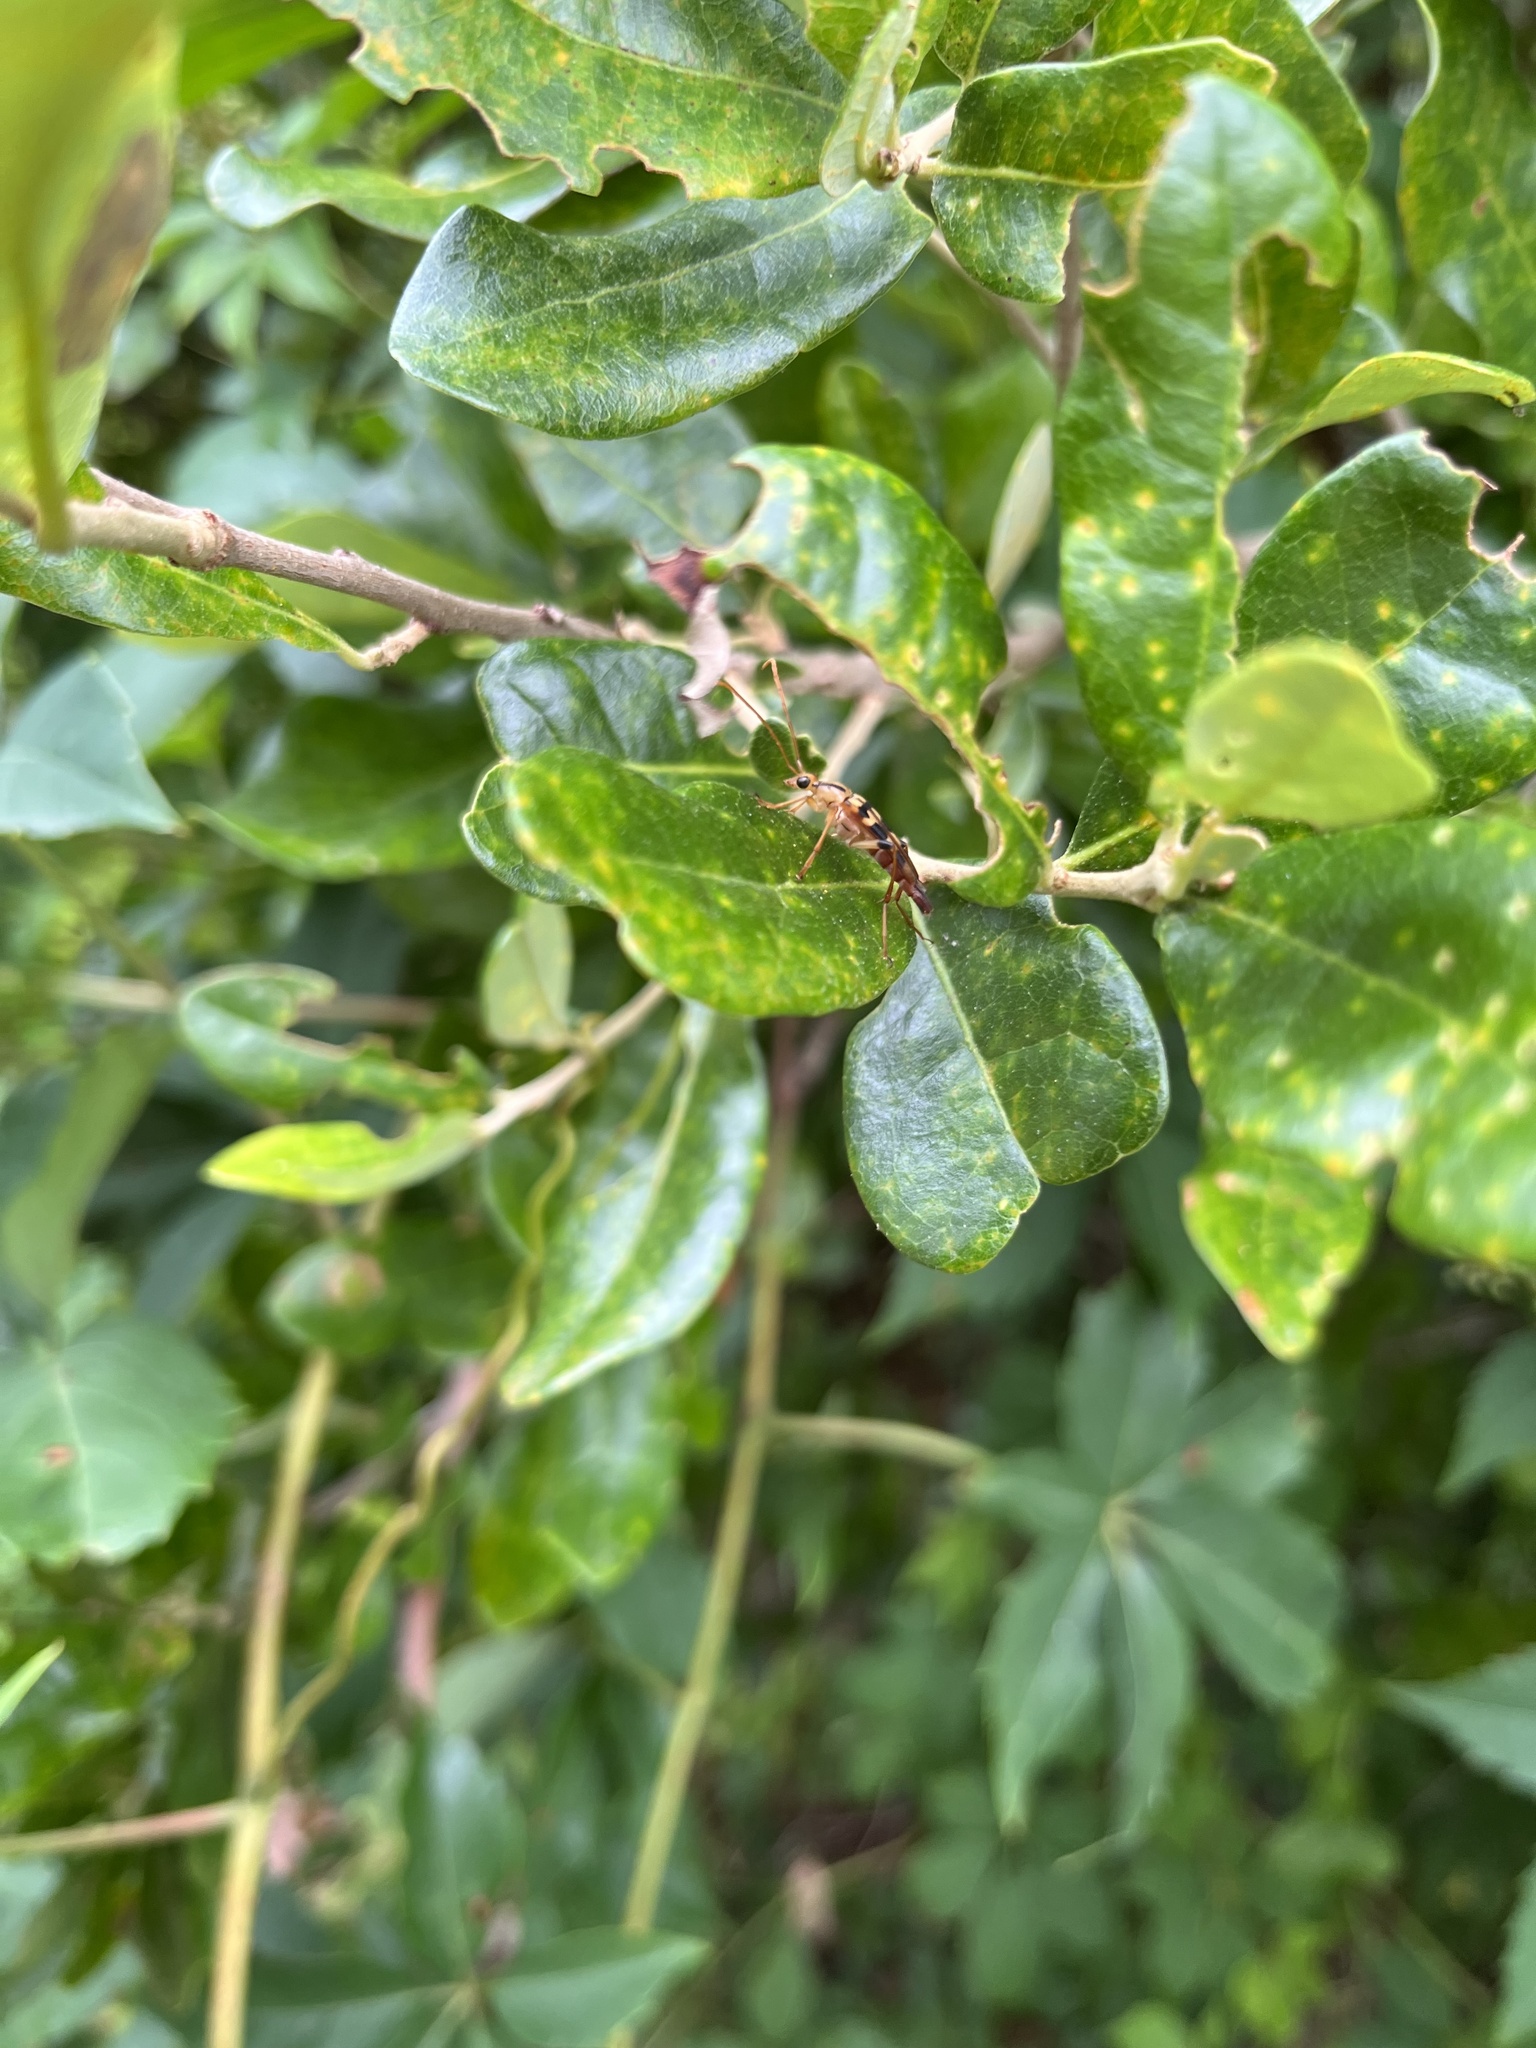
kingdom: Animalia
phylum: Arthropoda
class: Insecta
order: Coleoptera
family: Cerambycidae
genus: Strangalia
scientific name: Strangalia luteicornis
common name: Yellow-horned flower longhorn beetle
